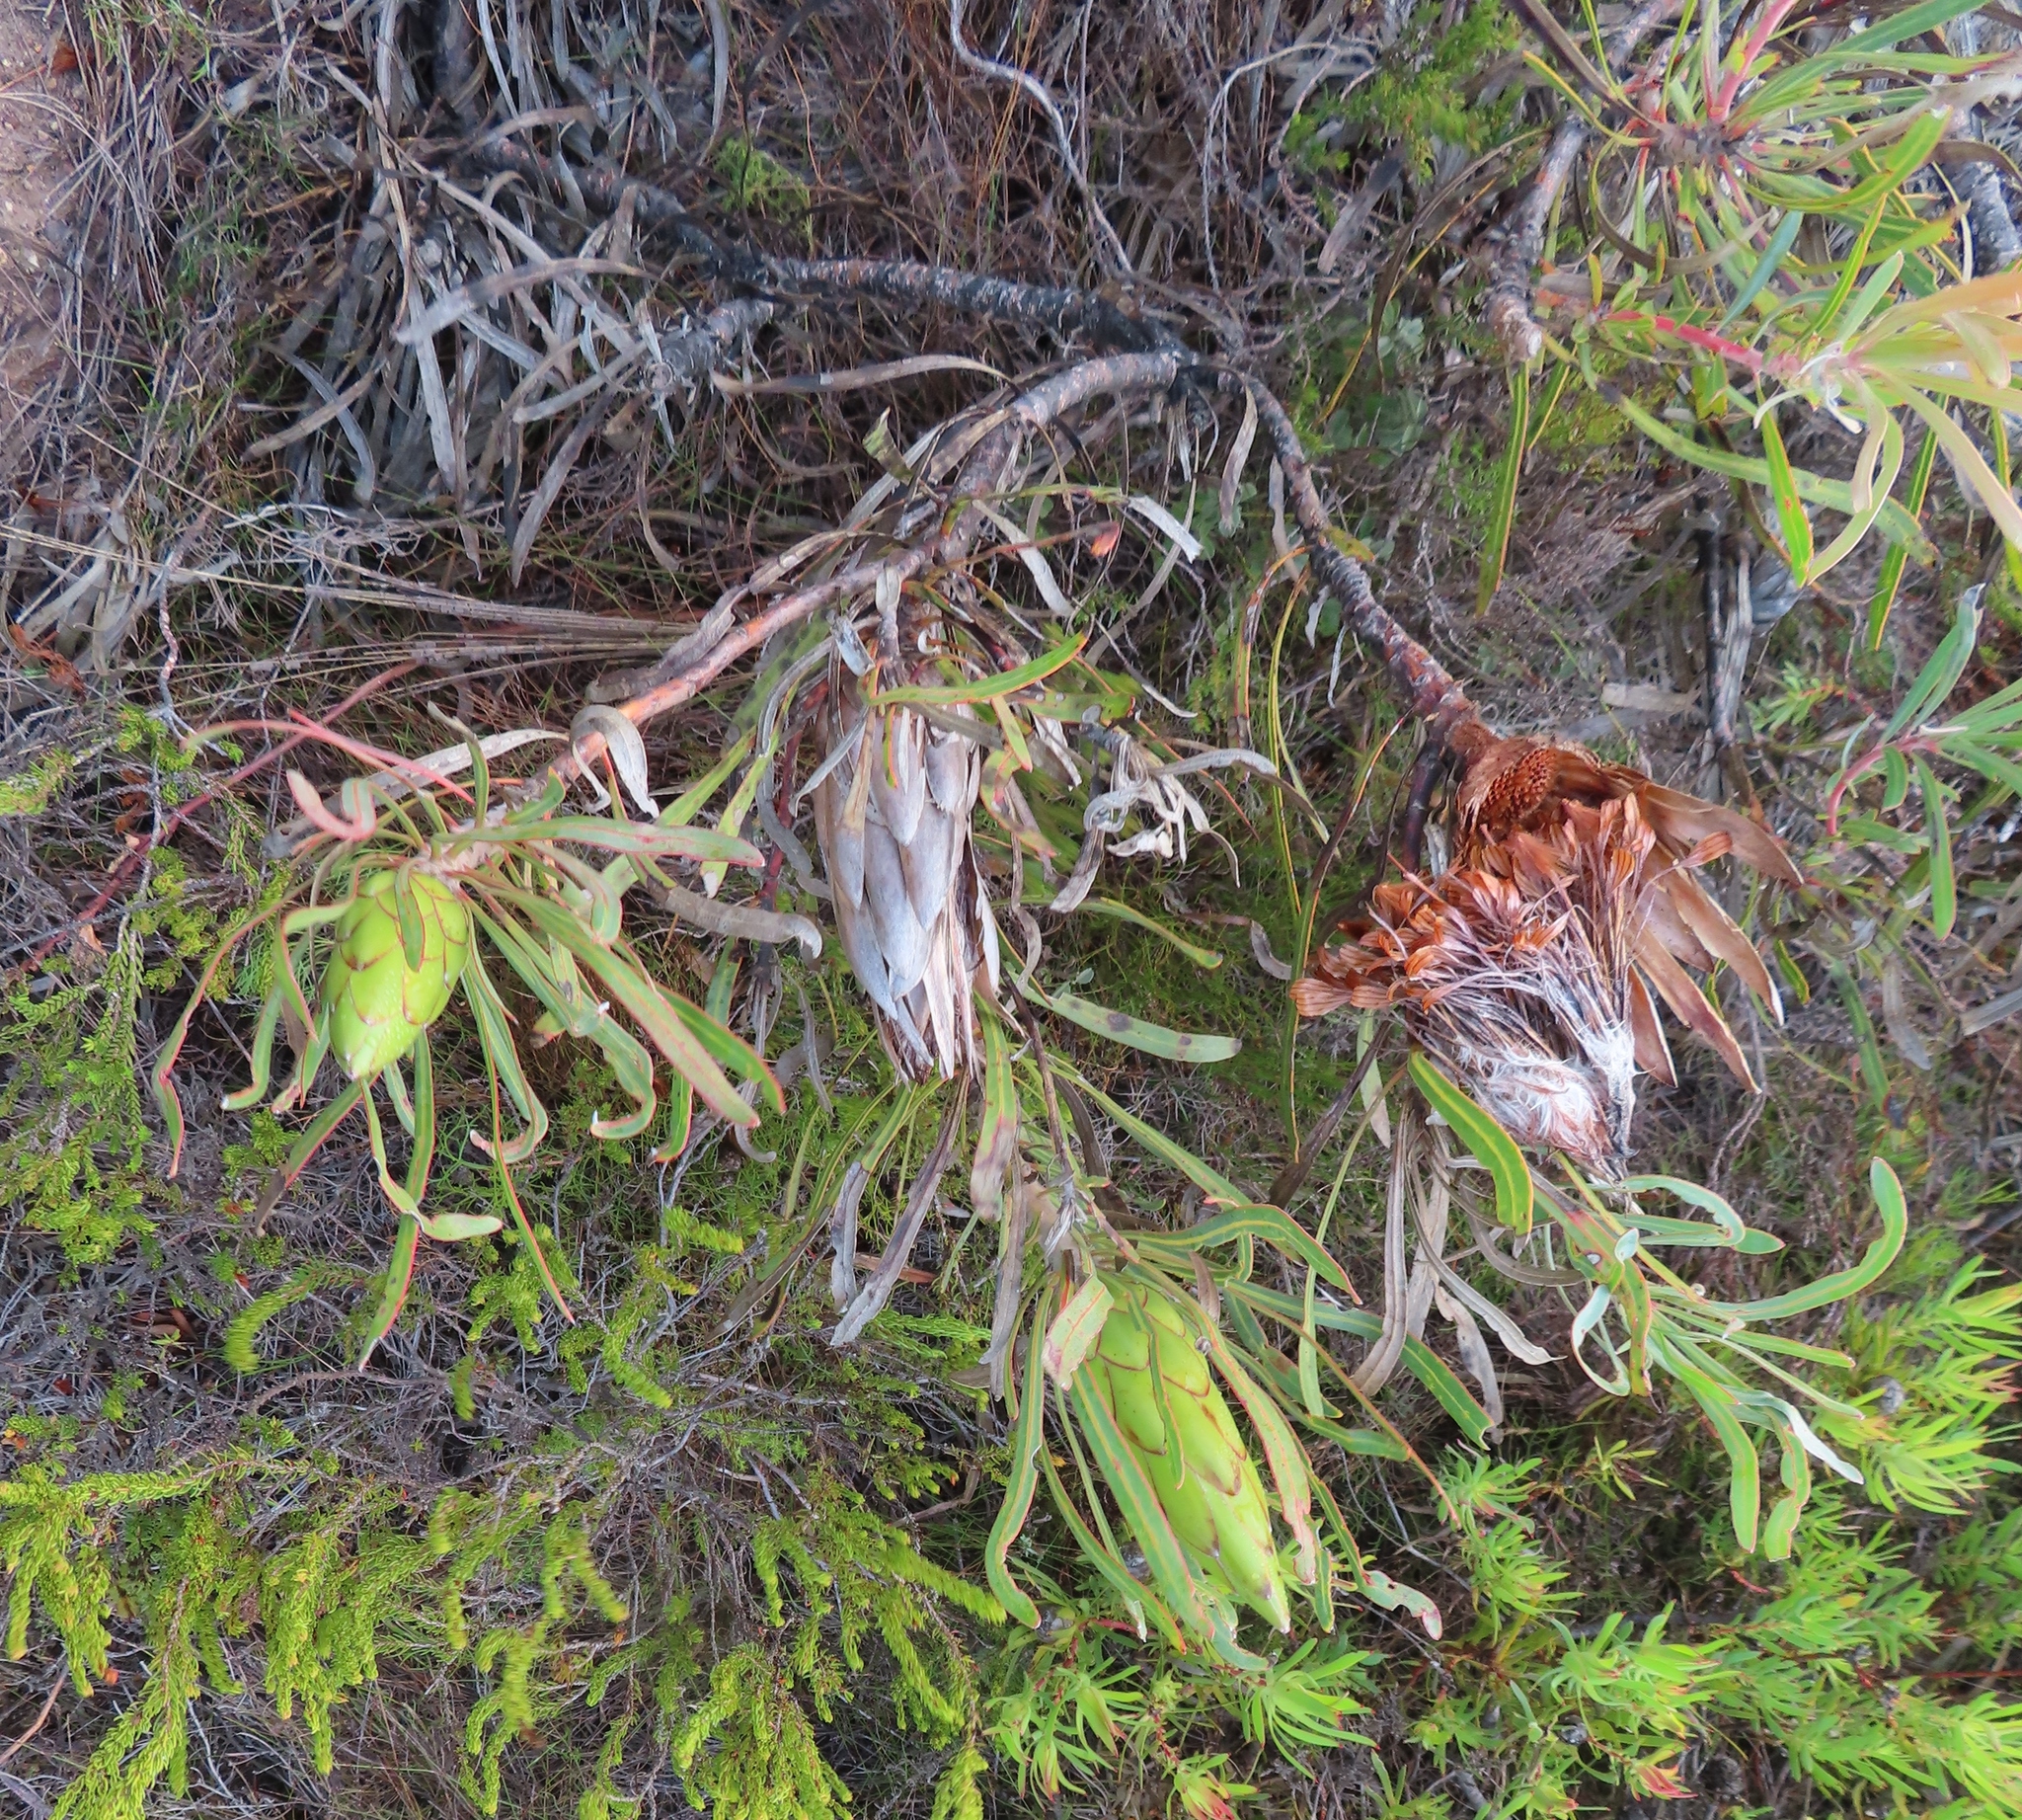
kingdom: Plantae
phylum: Tracheophyta
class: Magnoliopsida
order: Proteales
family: Proteaceae
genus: Protea
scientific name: Protea longifolia
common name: Long-leaf sugarbush
